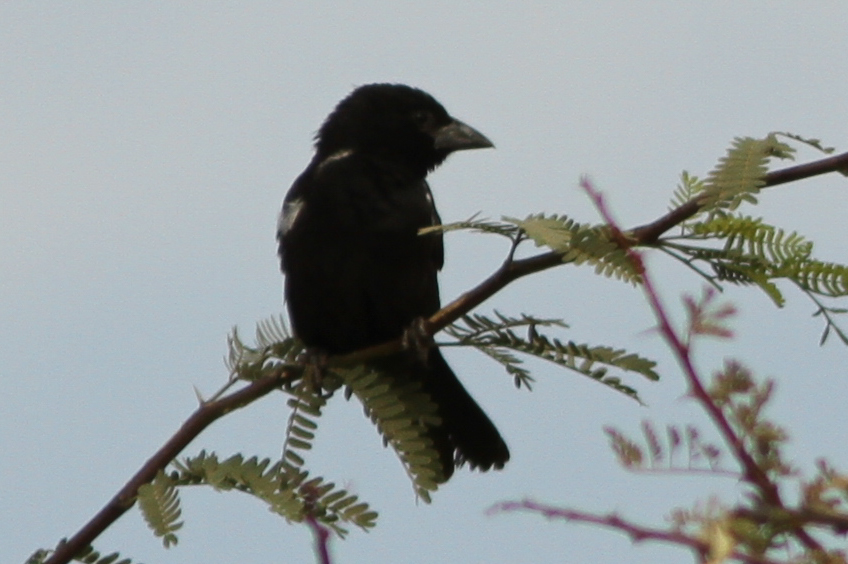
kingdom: Animalia
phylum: Chordata
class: Aves
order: Passeriformes
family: Ploceidae
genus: Bubalornis
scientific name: Bubalornis albirostris
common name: White-billed buffalo weaver
